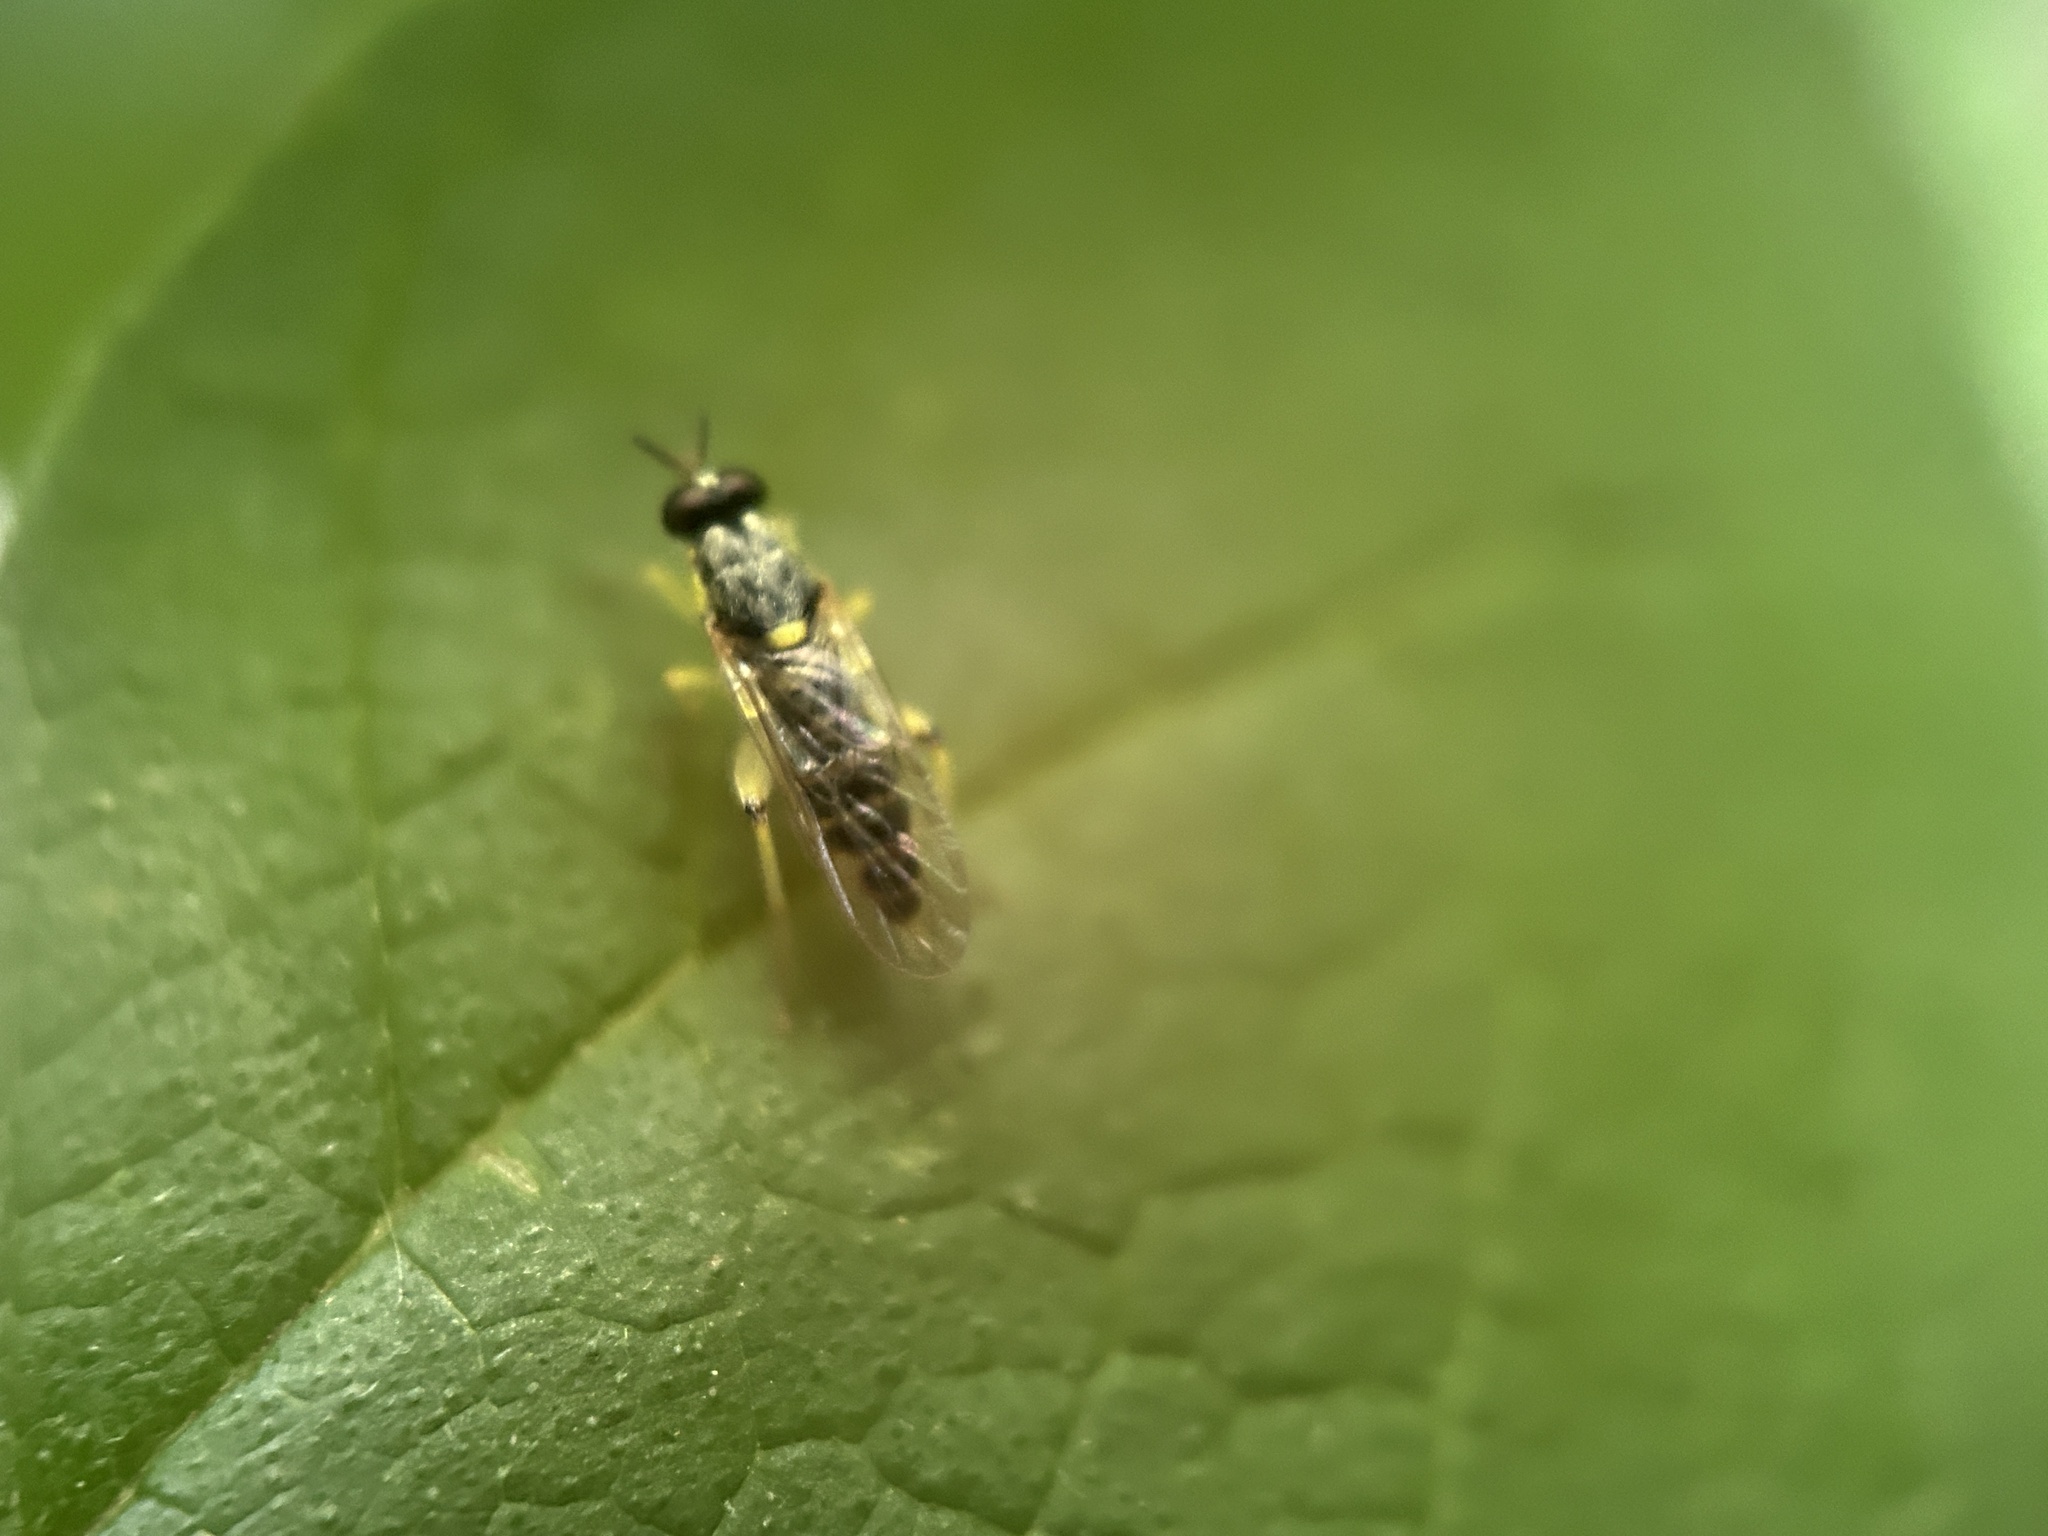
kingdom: Animalia
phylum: Arthropoda
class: Insecta
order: Diptera
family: Xylomyidae
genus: Solva
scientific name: Solva pallipes
